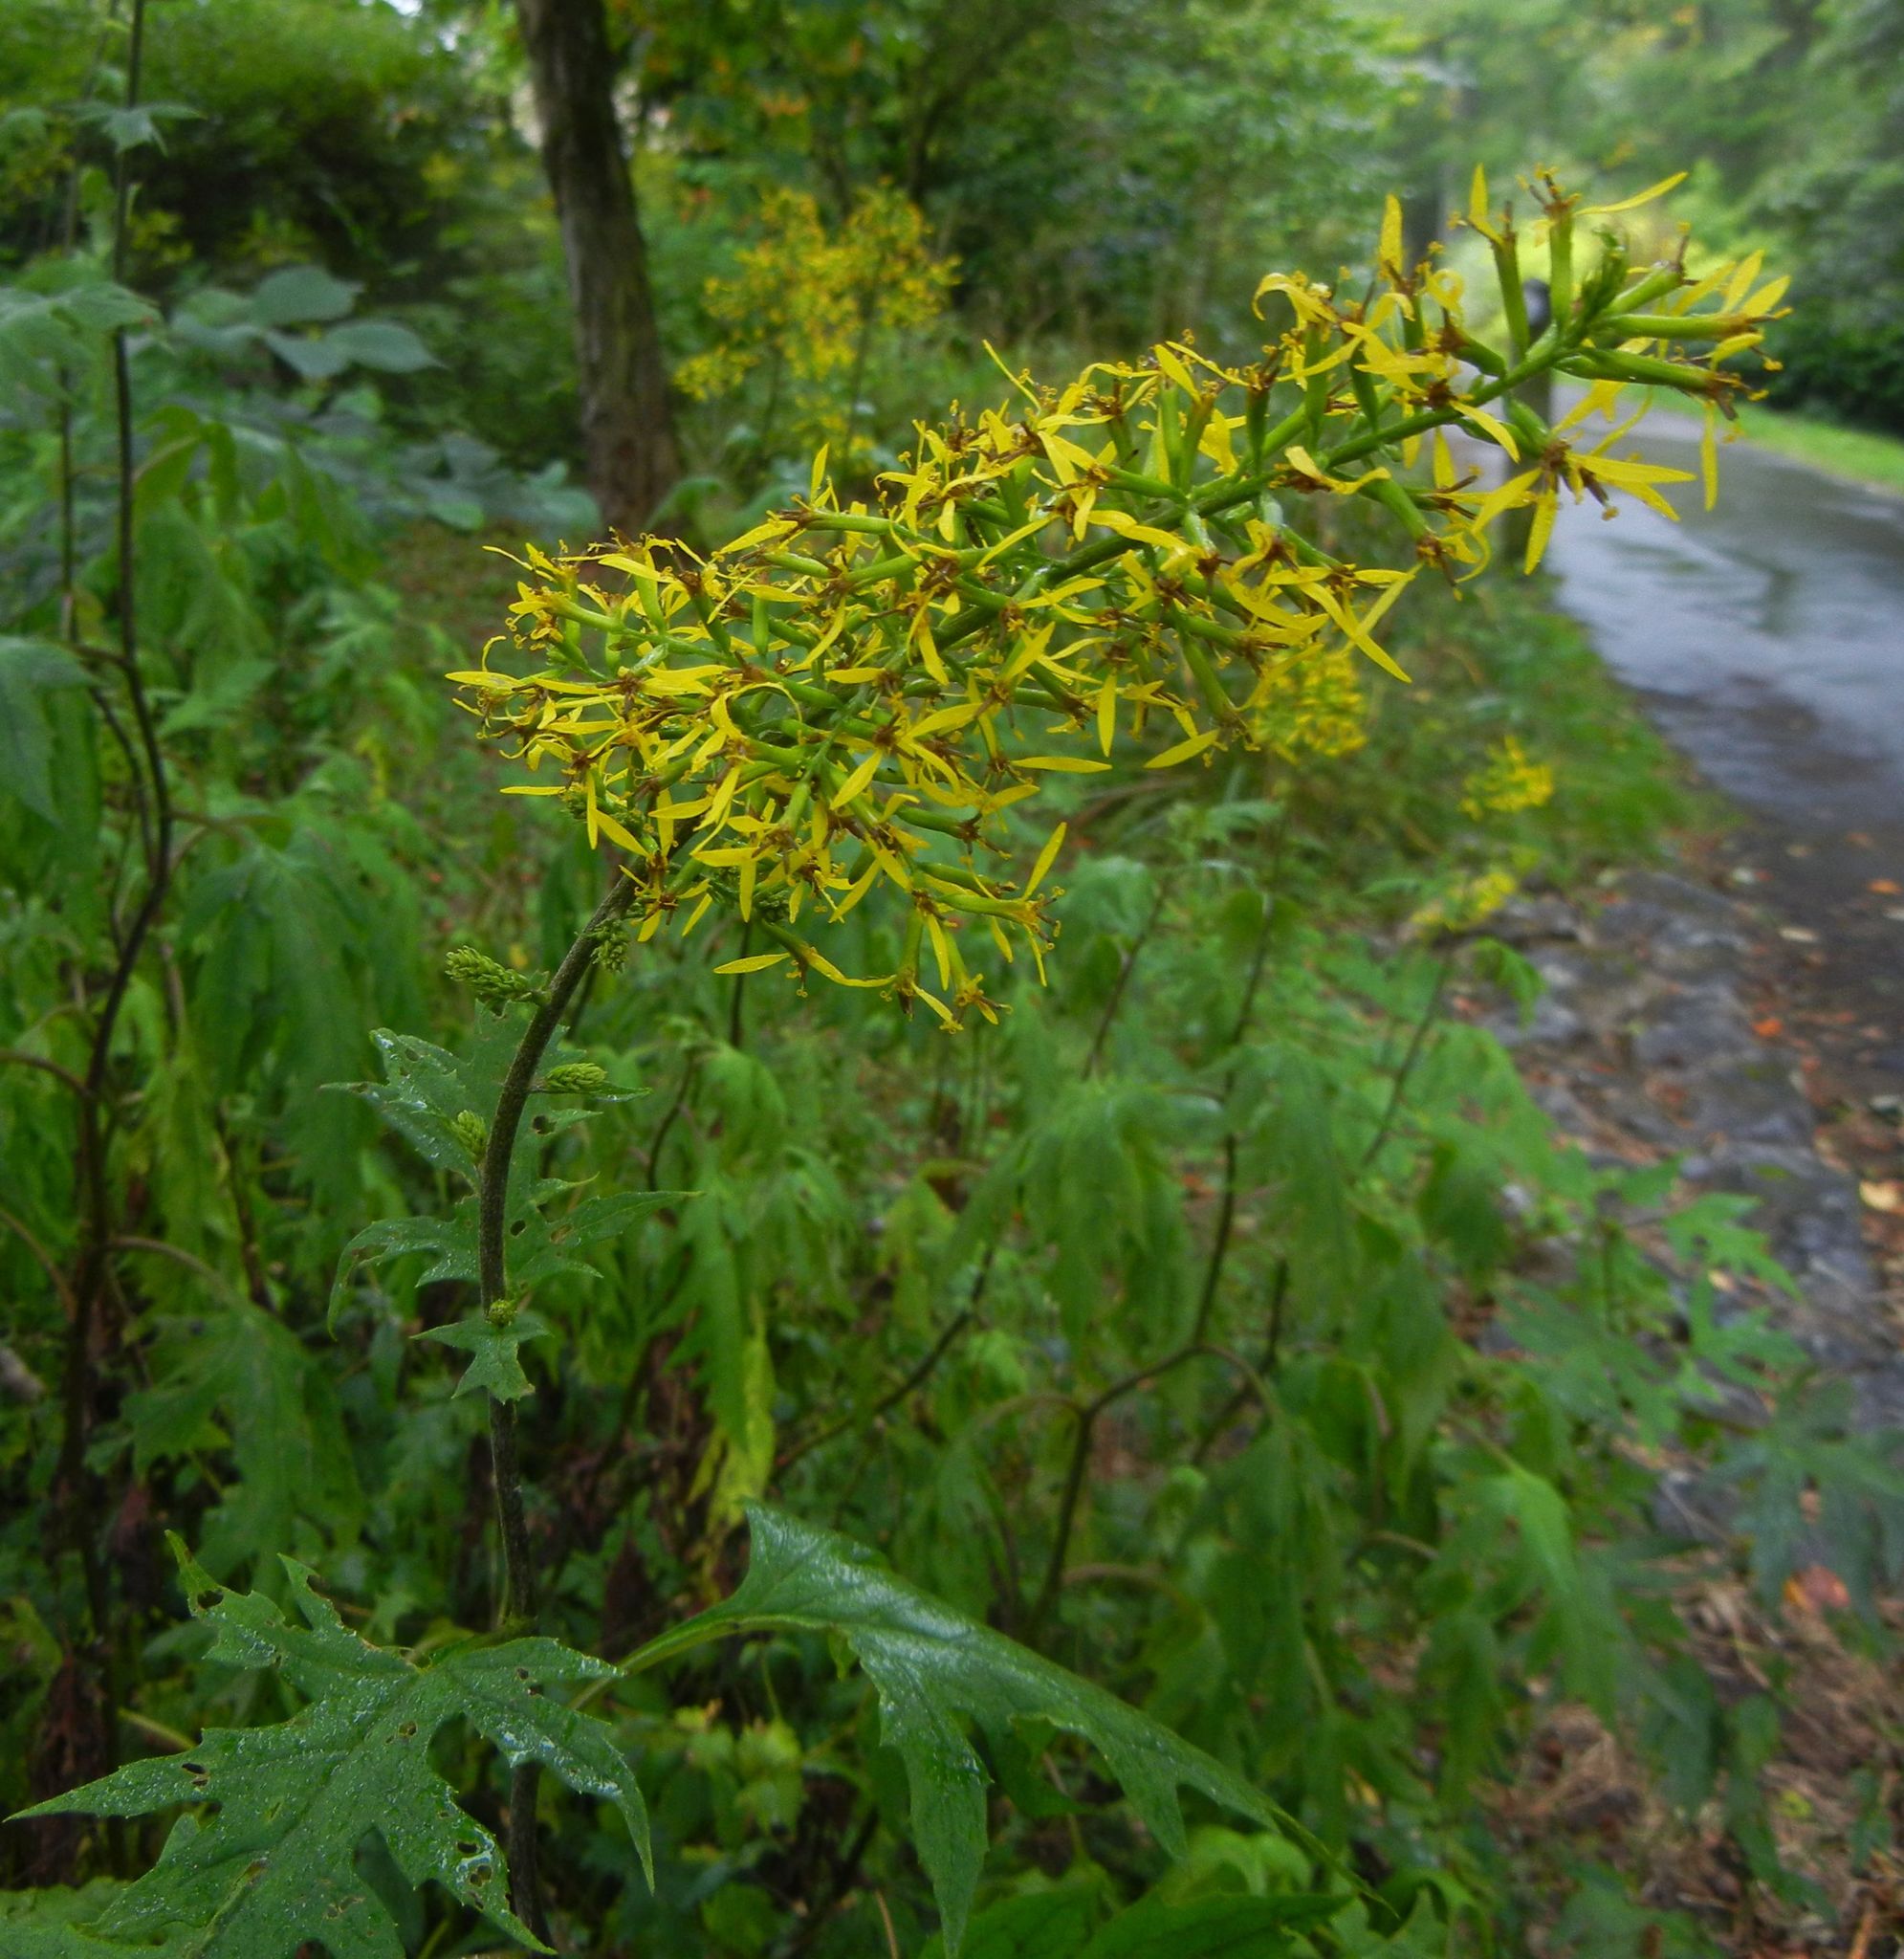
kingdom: Plantae
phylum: Tracheophyta
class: Magnoliopsida
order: Asterales
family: Asteraceae
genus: Sinacalia
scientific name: Sinacalia tangutica
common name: Chinese ragwort
